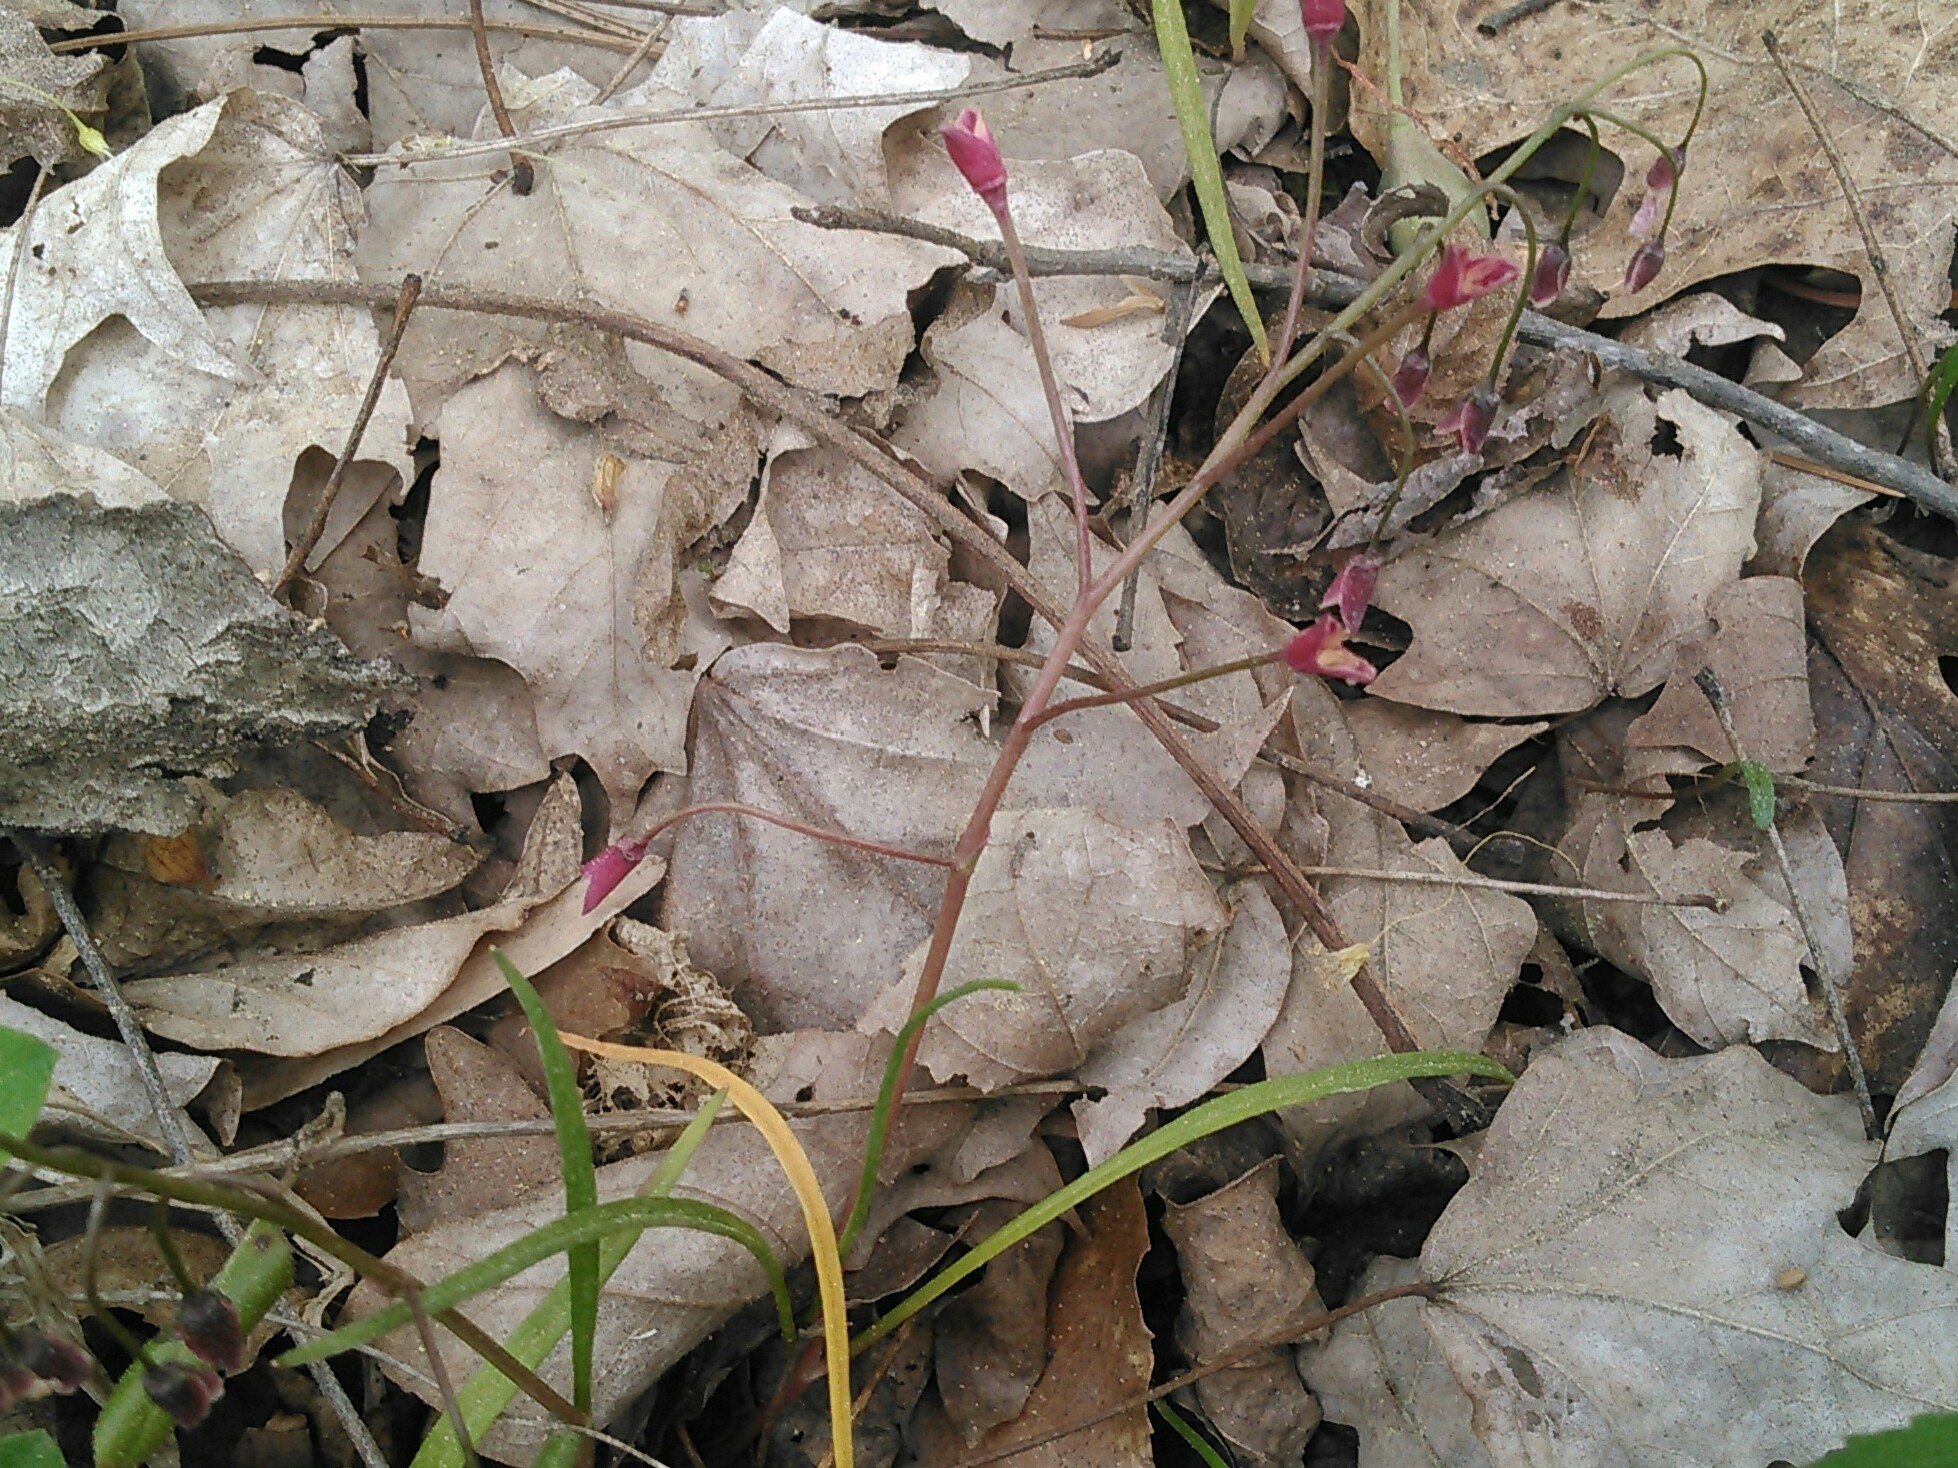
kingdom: Plantae
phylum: Tracheophyta
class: Magnoliopsida
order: Caryophyllales
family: Montiaceae
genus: Claytonia
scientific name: Claytonia virginica
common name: Virginia springbeauty
